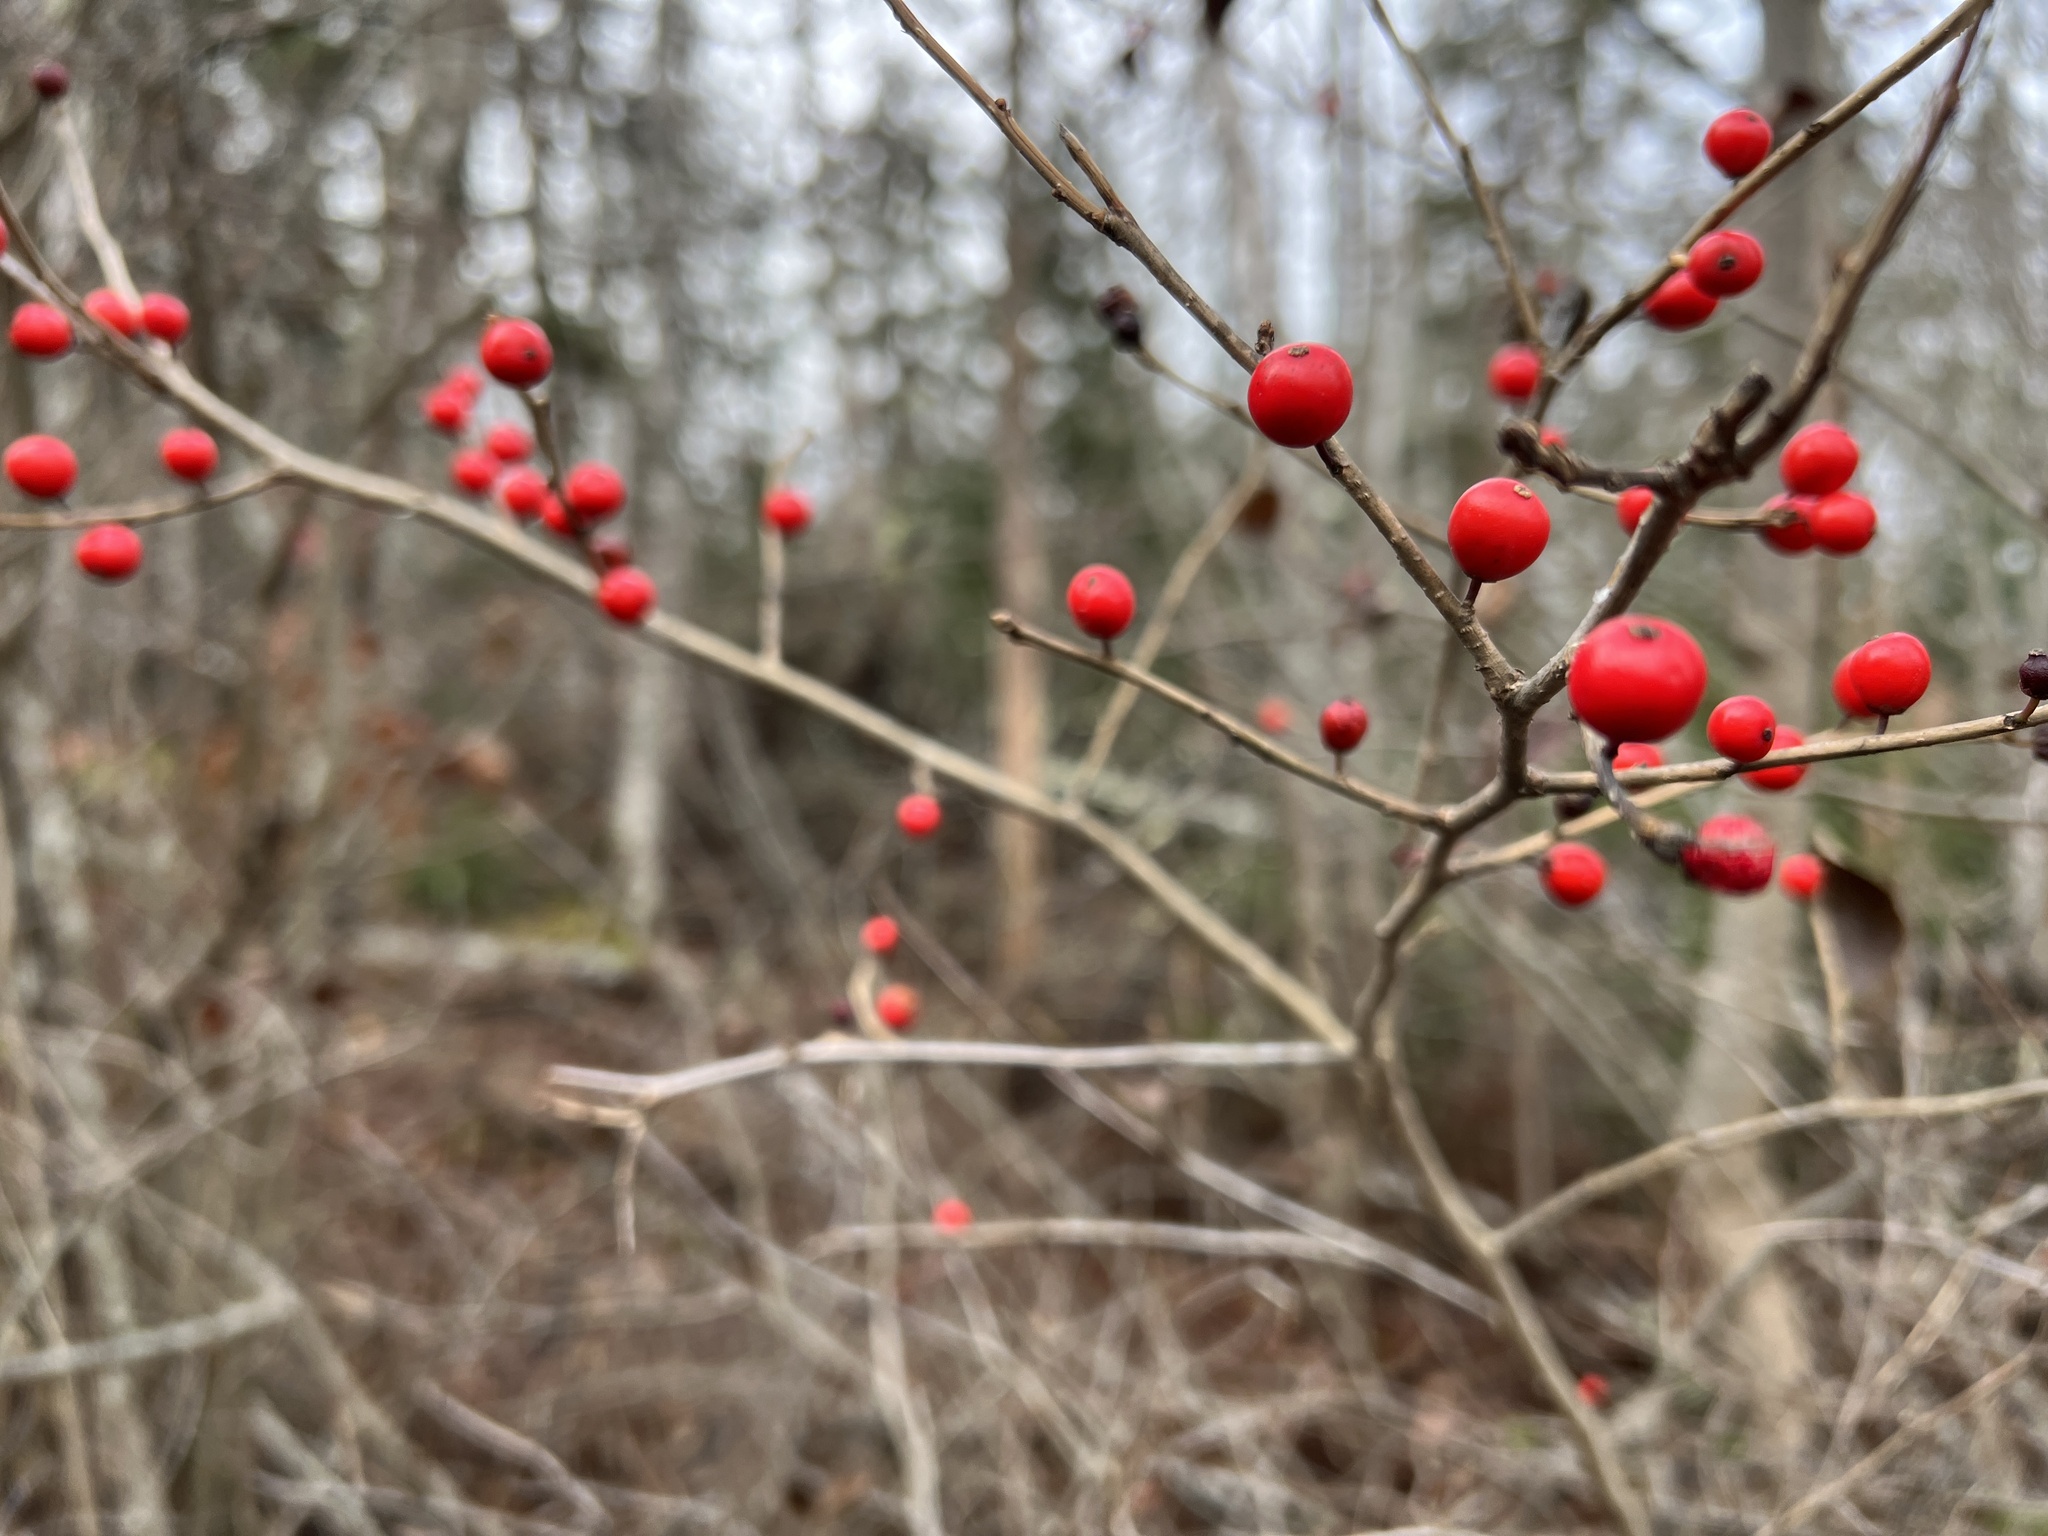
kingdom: Plantae
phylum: Tracheophyta
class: Magnoliopsida
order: Aquifoliales
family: Aquifoliaceae
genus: Ilex
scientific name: Ilex verticillata
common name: Virginia winterberry
